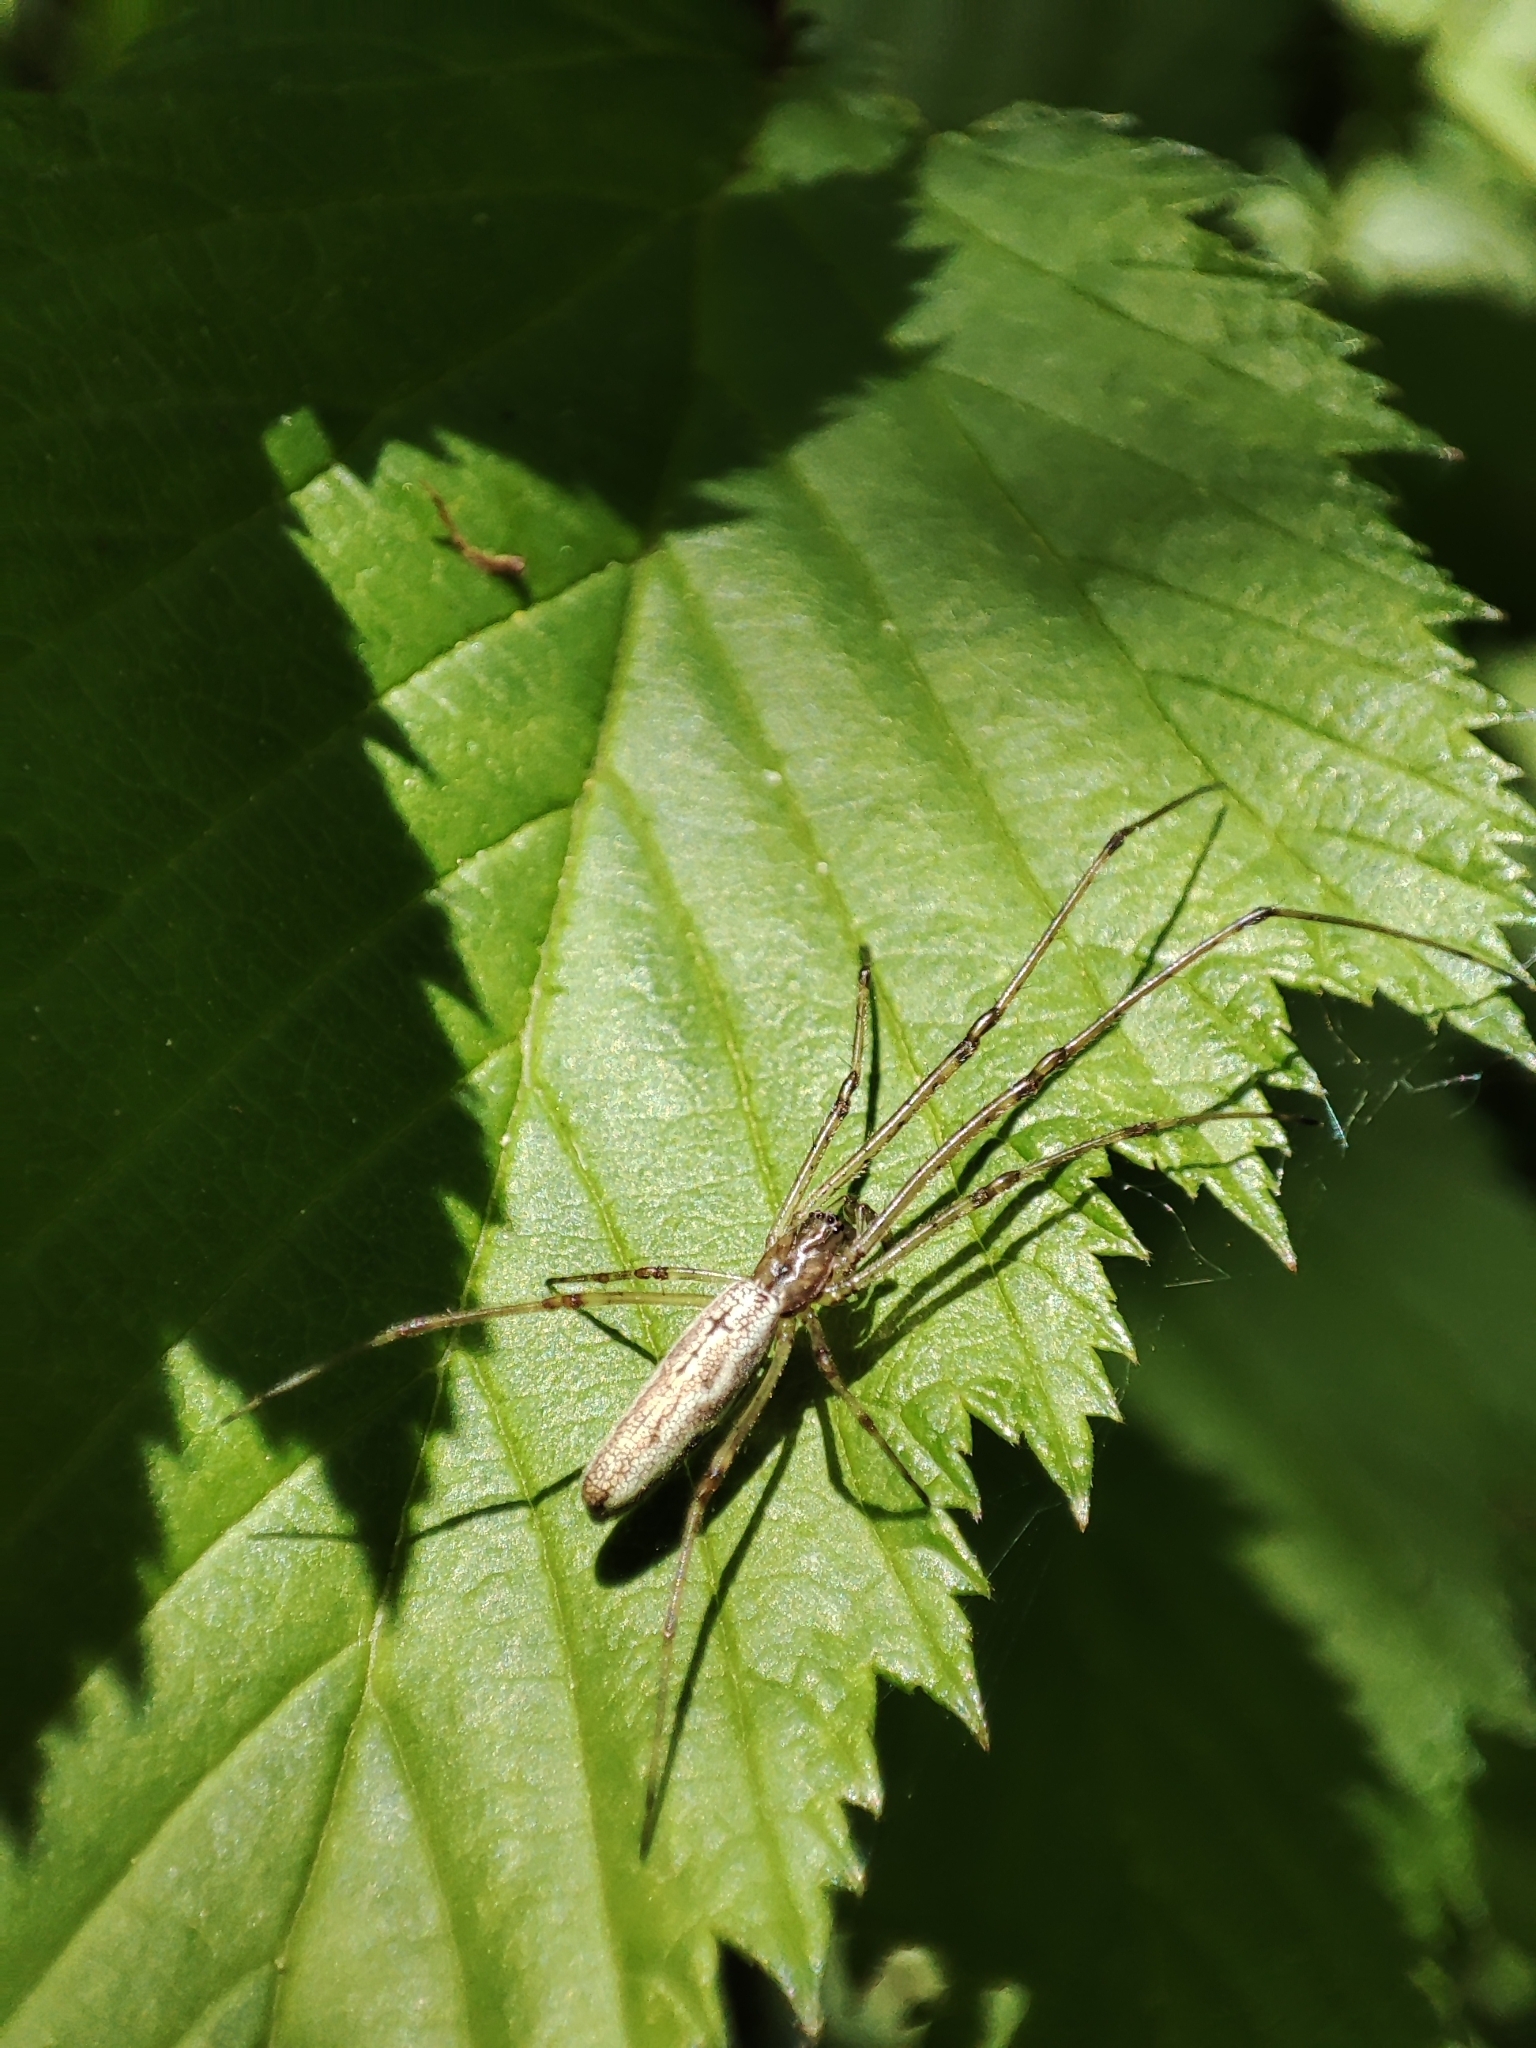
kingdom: Animalia
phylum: Arthropoda
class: Arachnida
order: Araneae
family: Tetragnathidae
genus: Tetragnatha
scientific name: Tetragnatha
